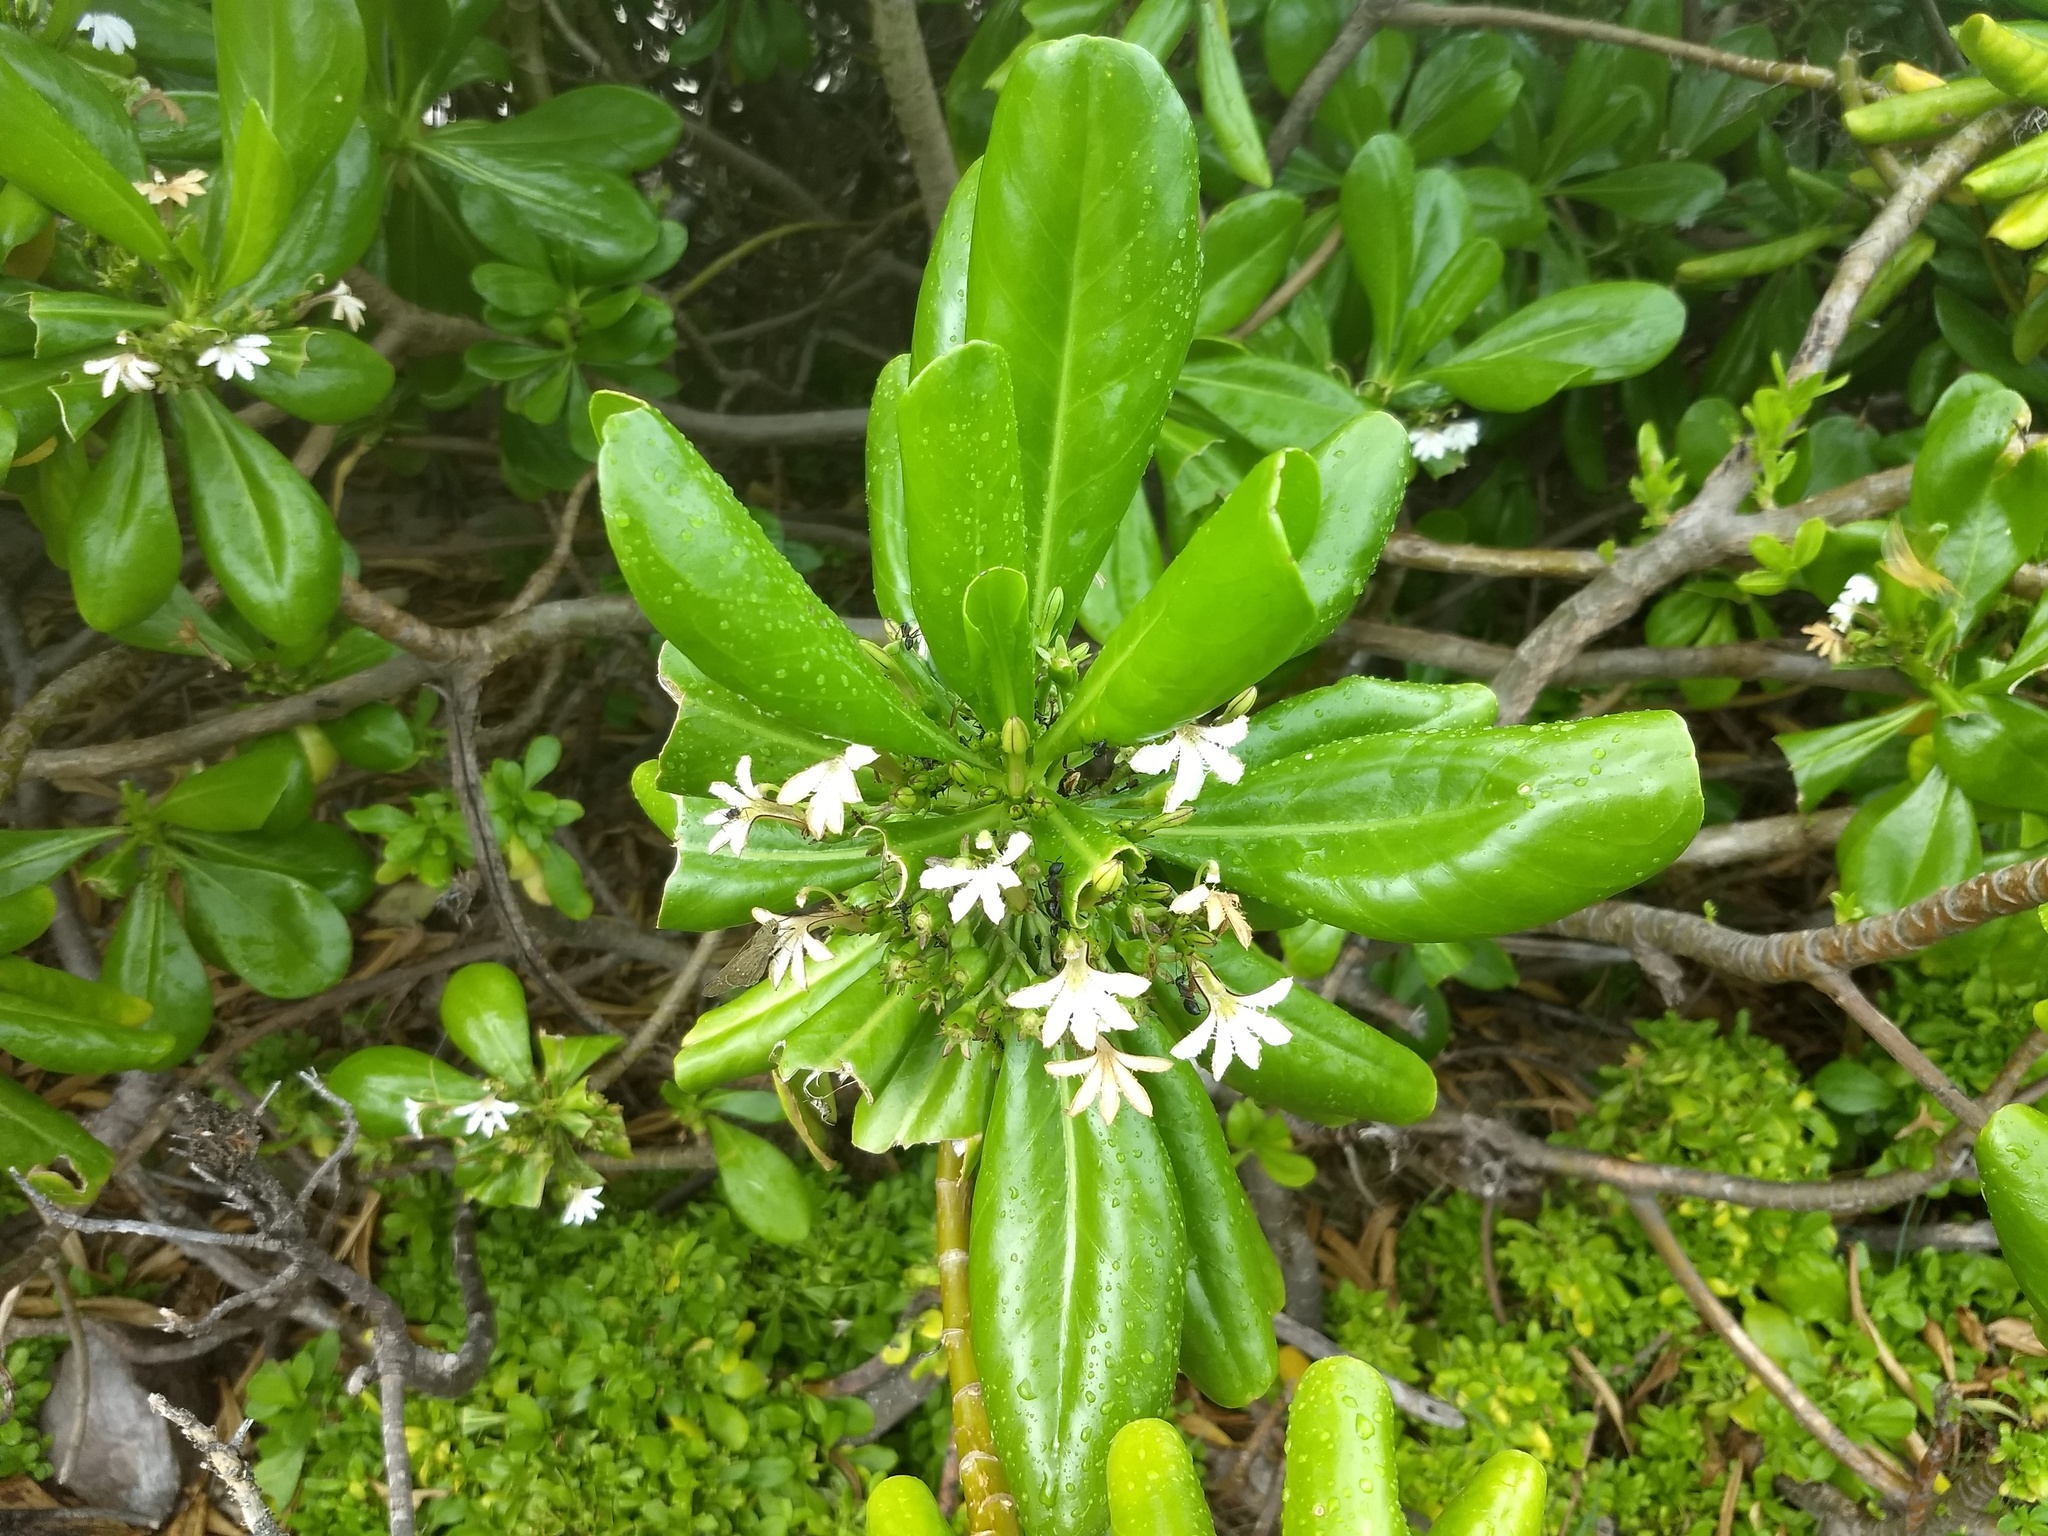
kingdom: Plantae
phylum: Tracheophyta
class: Magnoliopsida
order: Asterales
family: Goodeniaceae
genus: Scaevola
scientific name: Scaevola taccada
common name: Sea lettucetree
